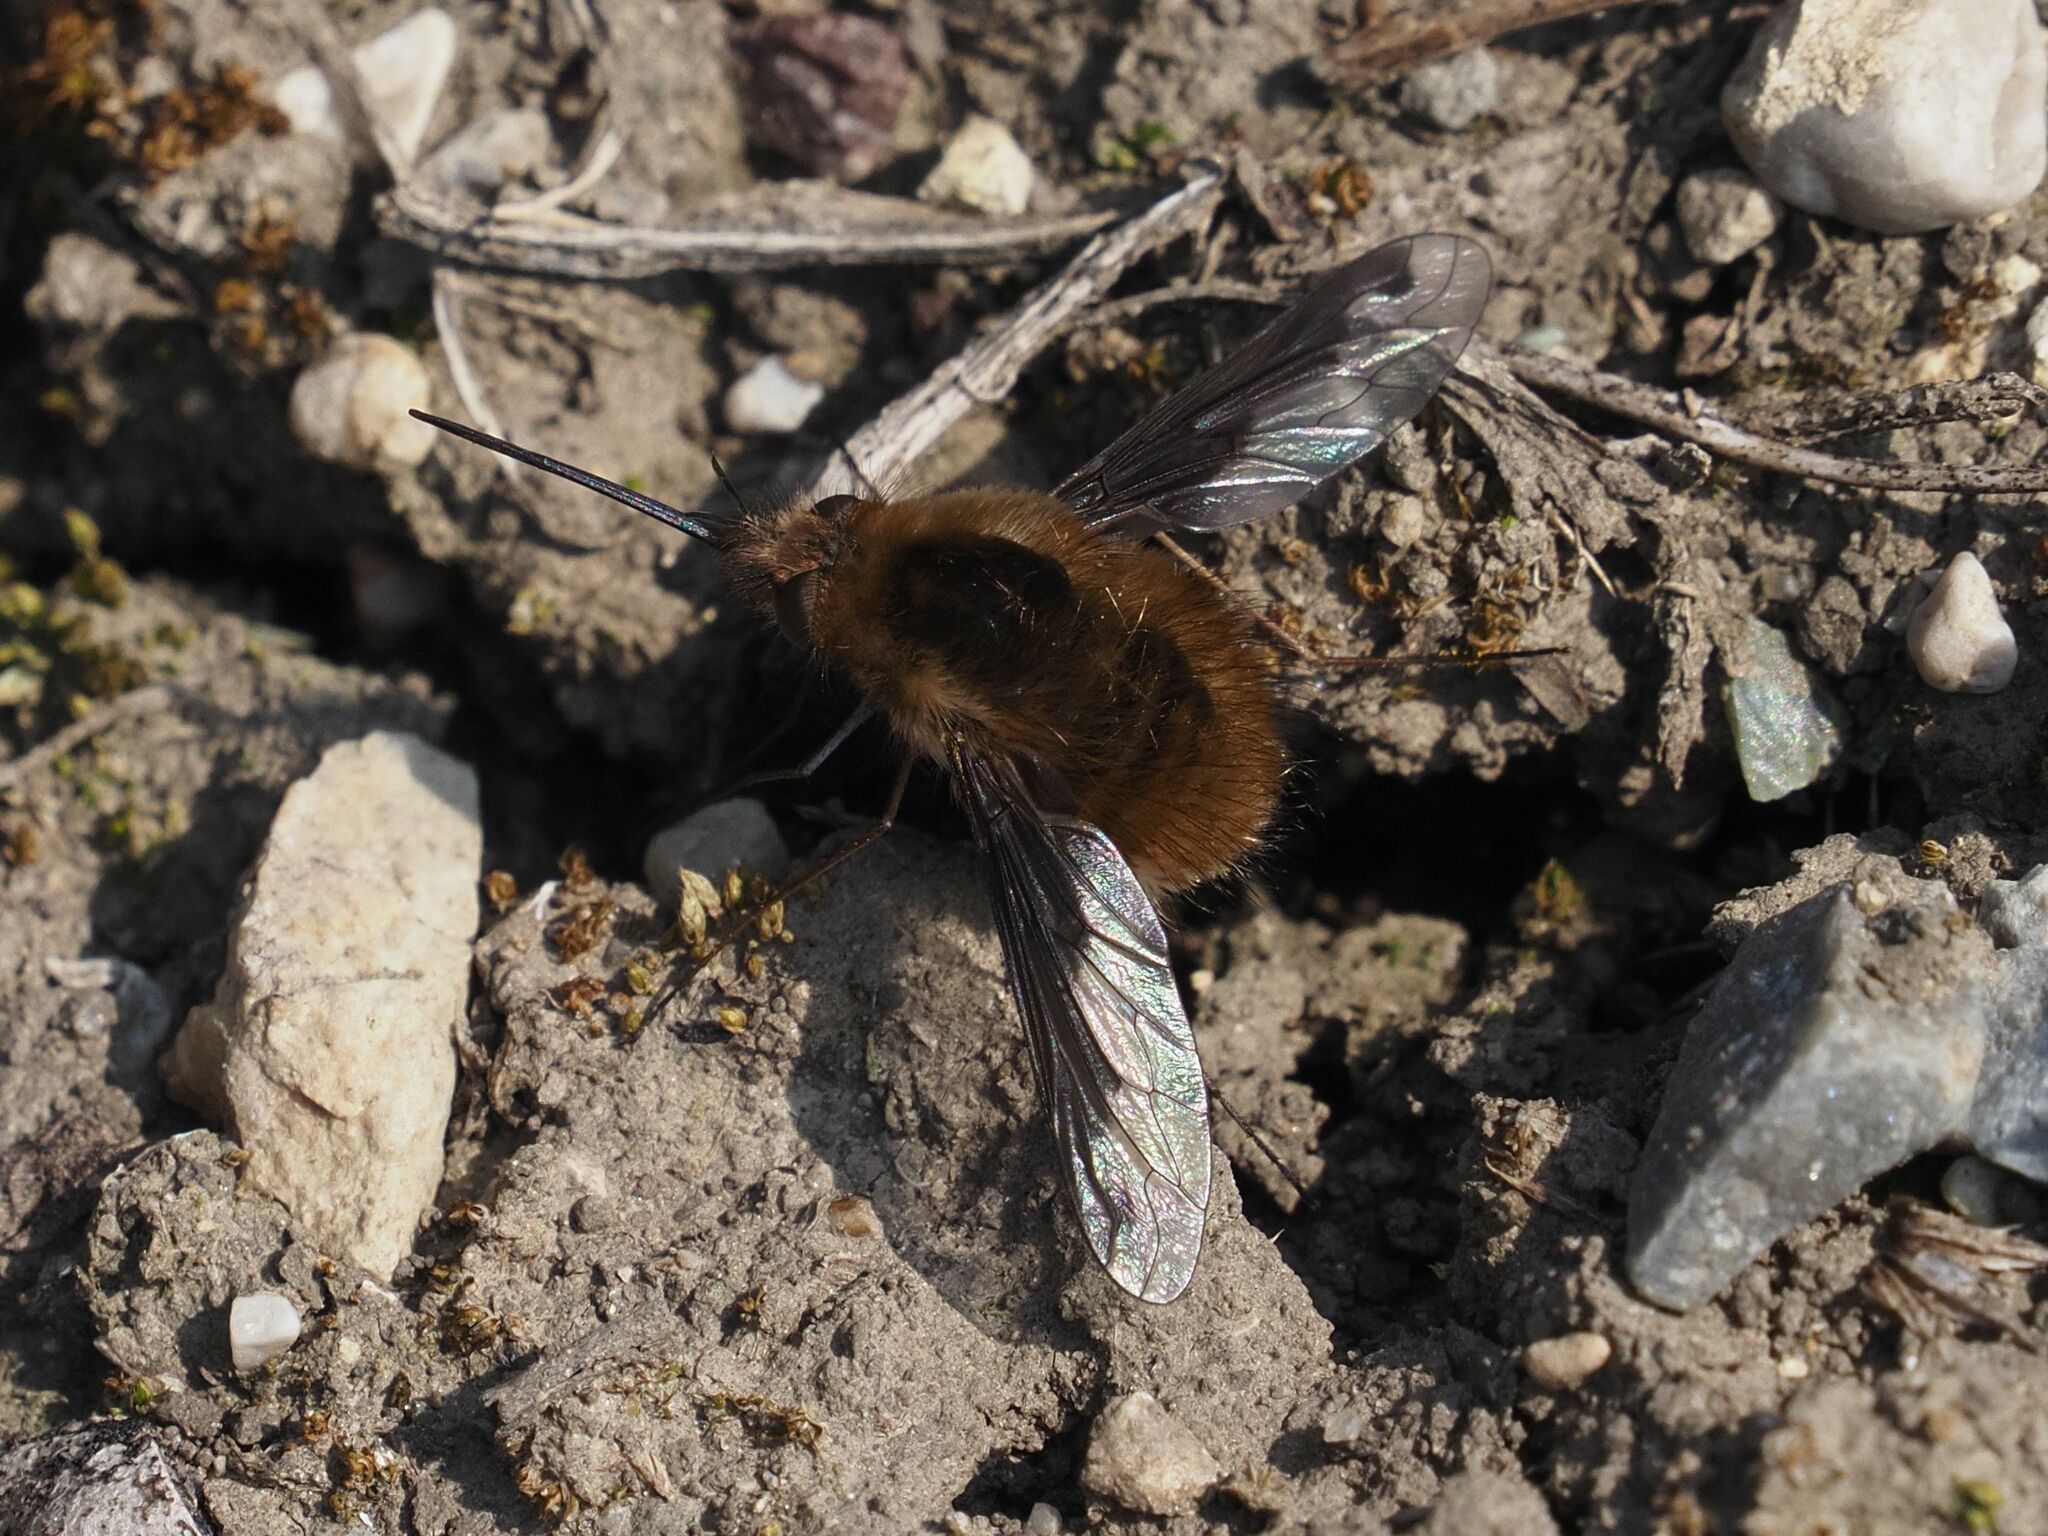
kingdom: Animalia
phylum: Arthropoda
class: Insecta
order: Diptera
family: Bombyliidae
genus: Bombylius
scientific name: Bombylius major
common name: Bee fly
